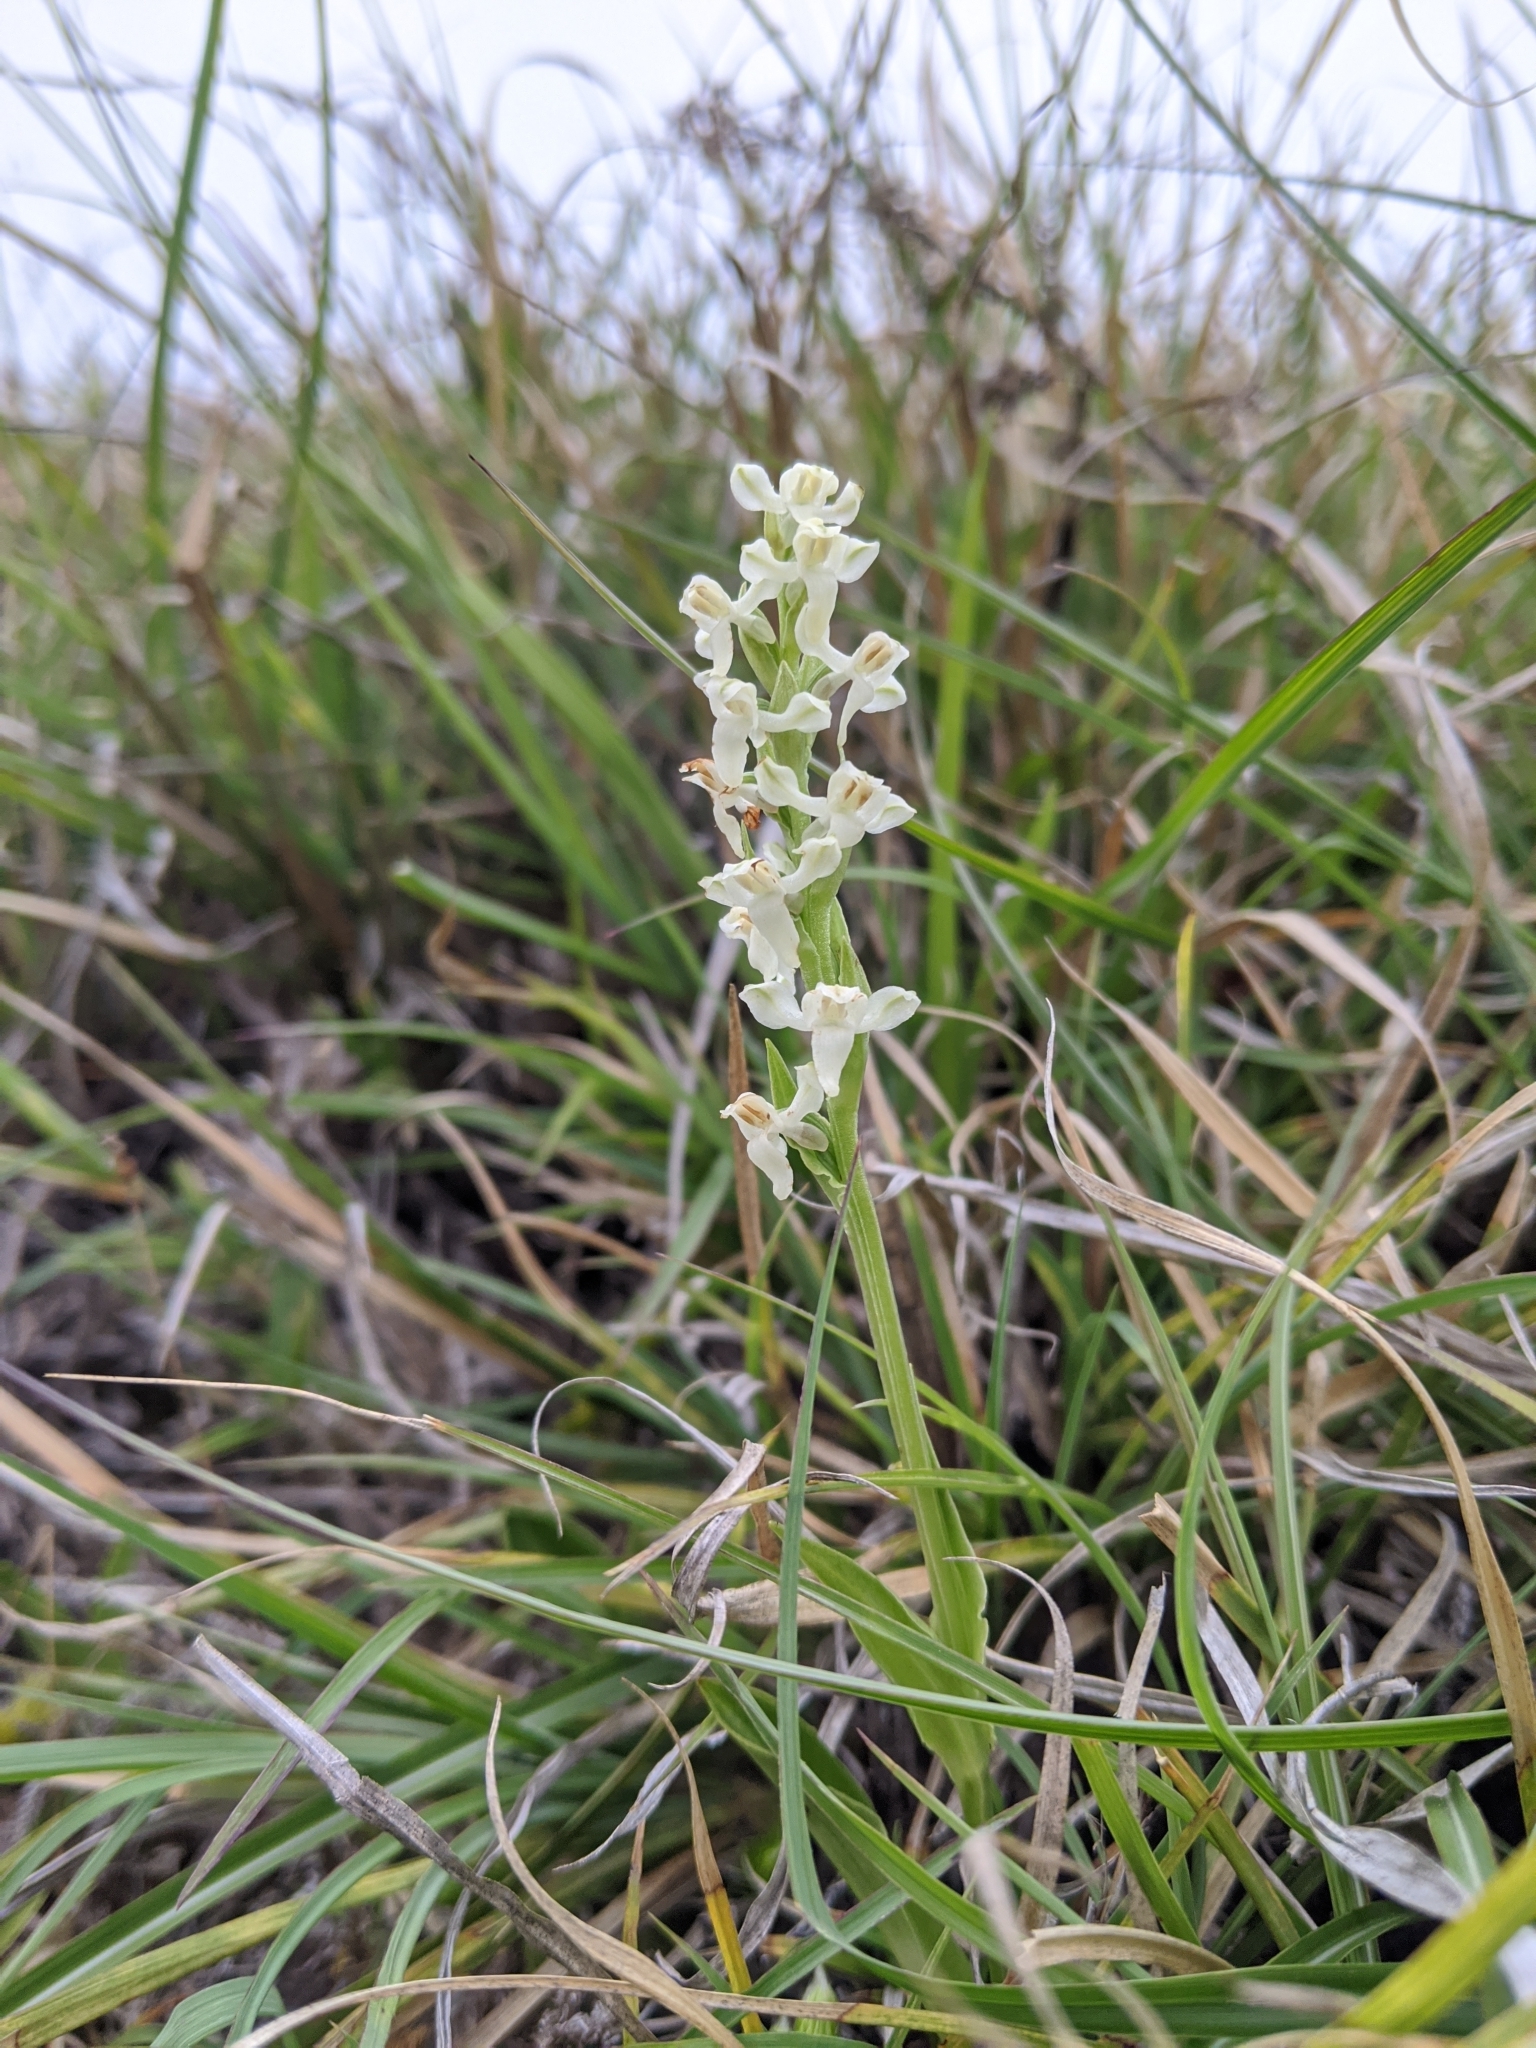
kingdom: Plantae
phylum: Tracheophyta
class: Liliopsida
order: Asparagales
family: Orchidaceae
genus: Platanthera
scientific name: Platanthera brevicalcarata
